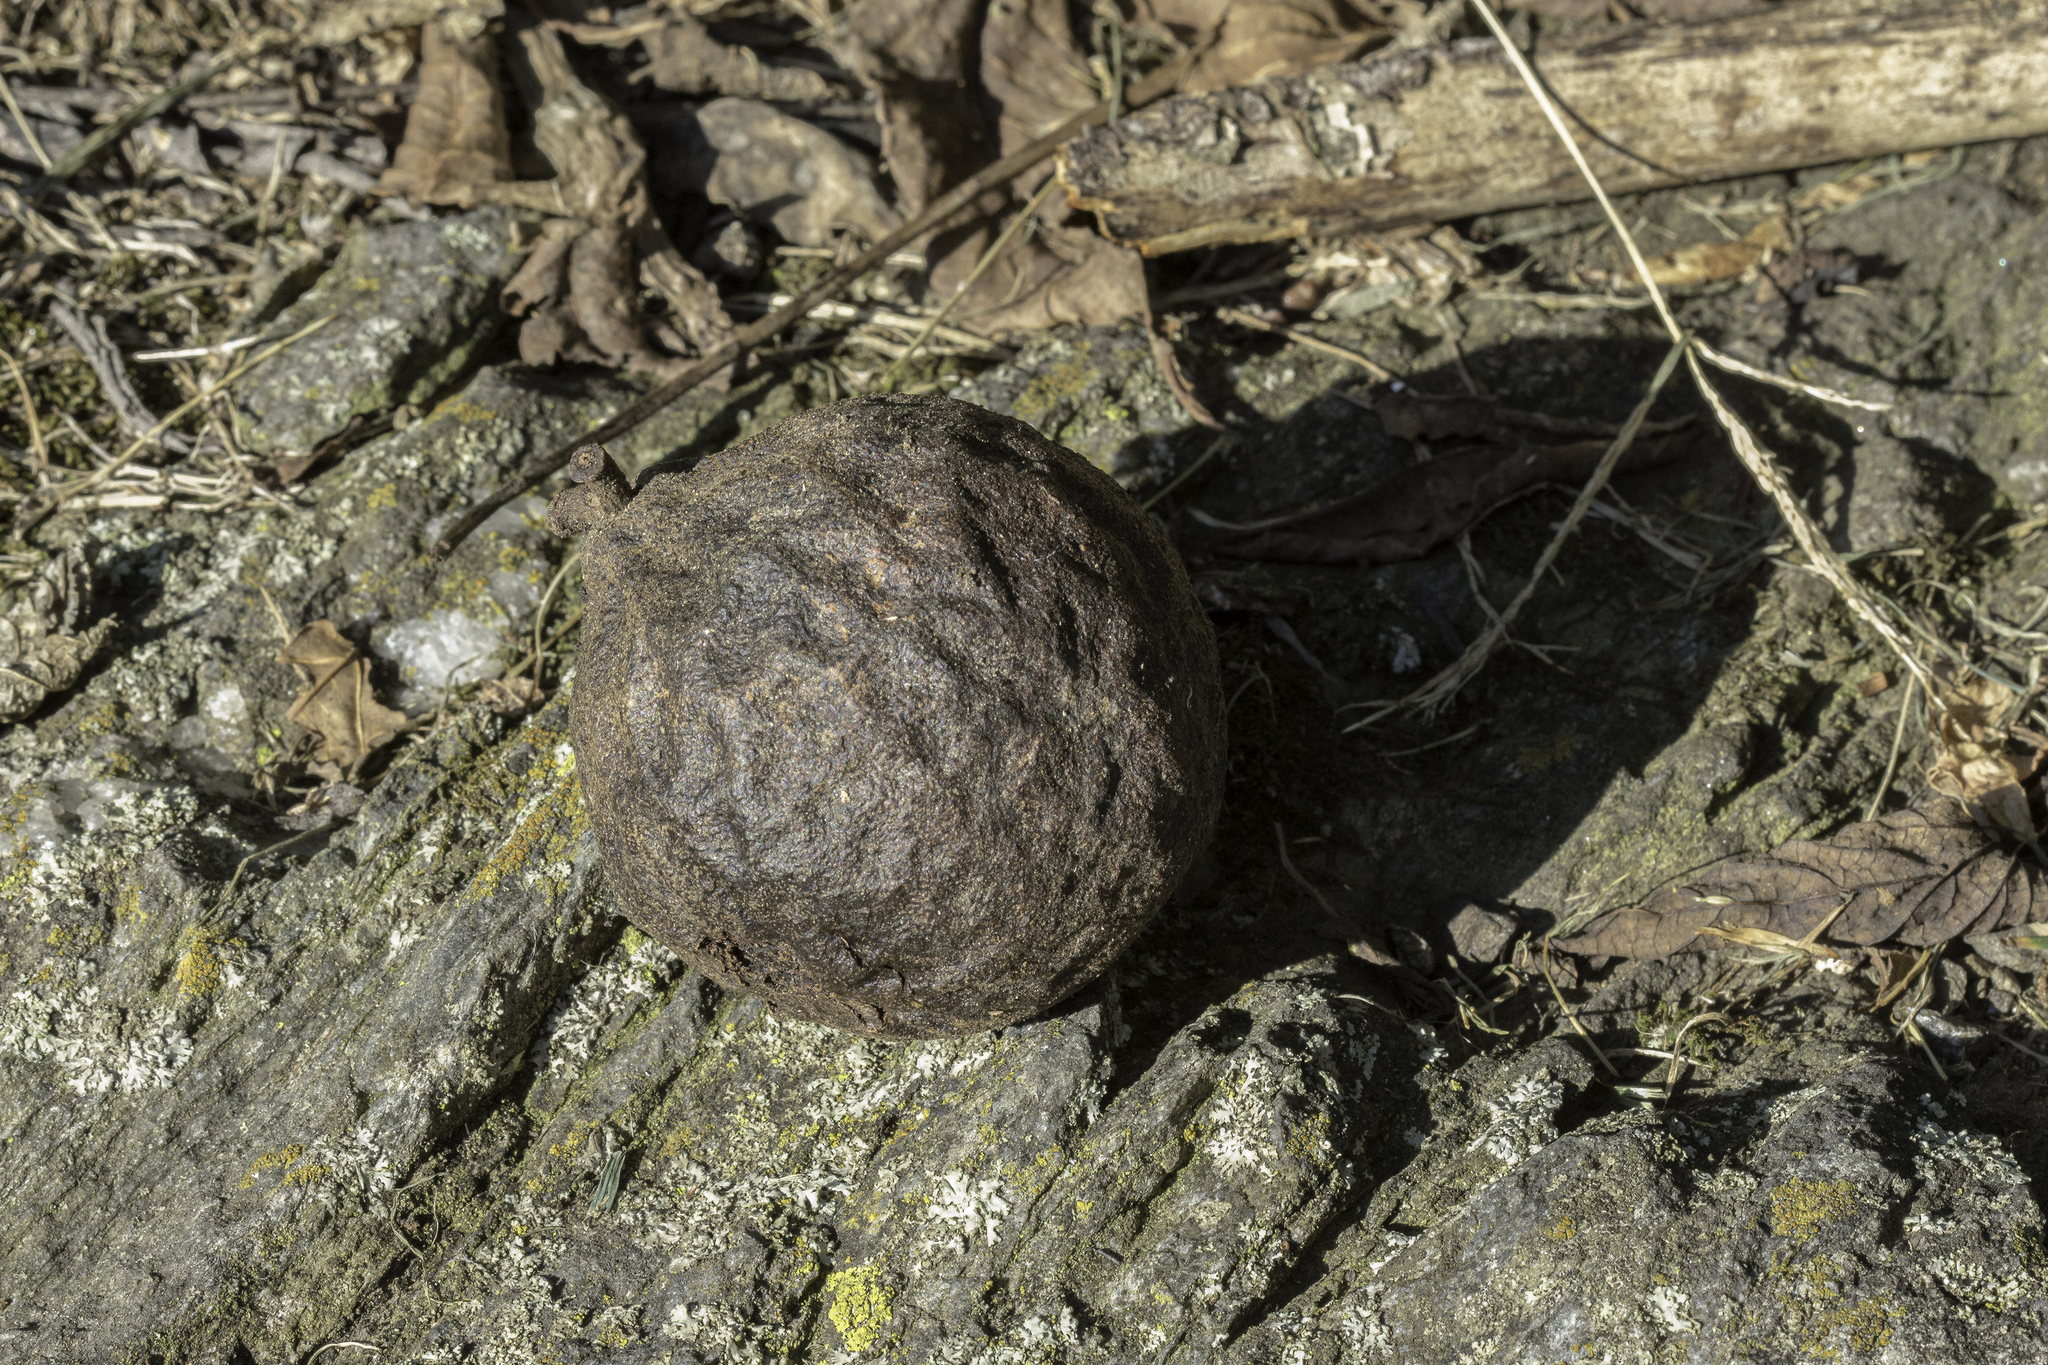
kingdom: Plantae
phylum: Tracheophyta
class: Magnoliopsida
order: Fagales
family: Juglandaceae
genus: Juglans
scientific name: Juglans nigra
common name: Black walnut
